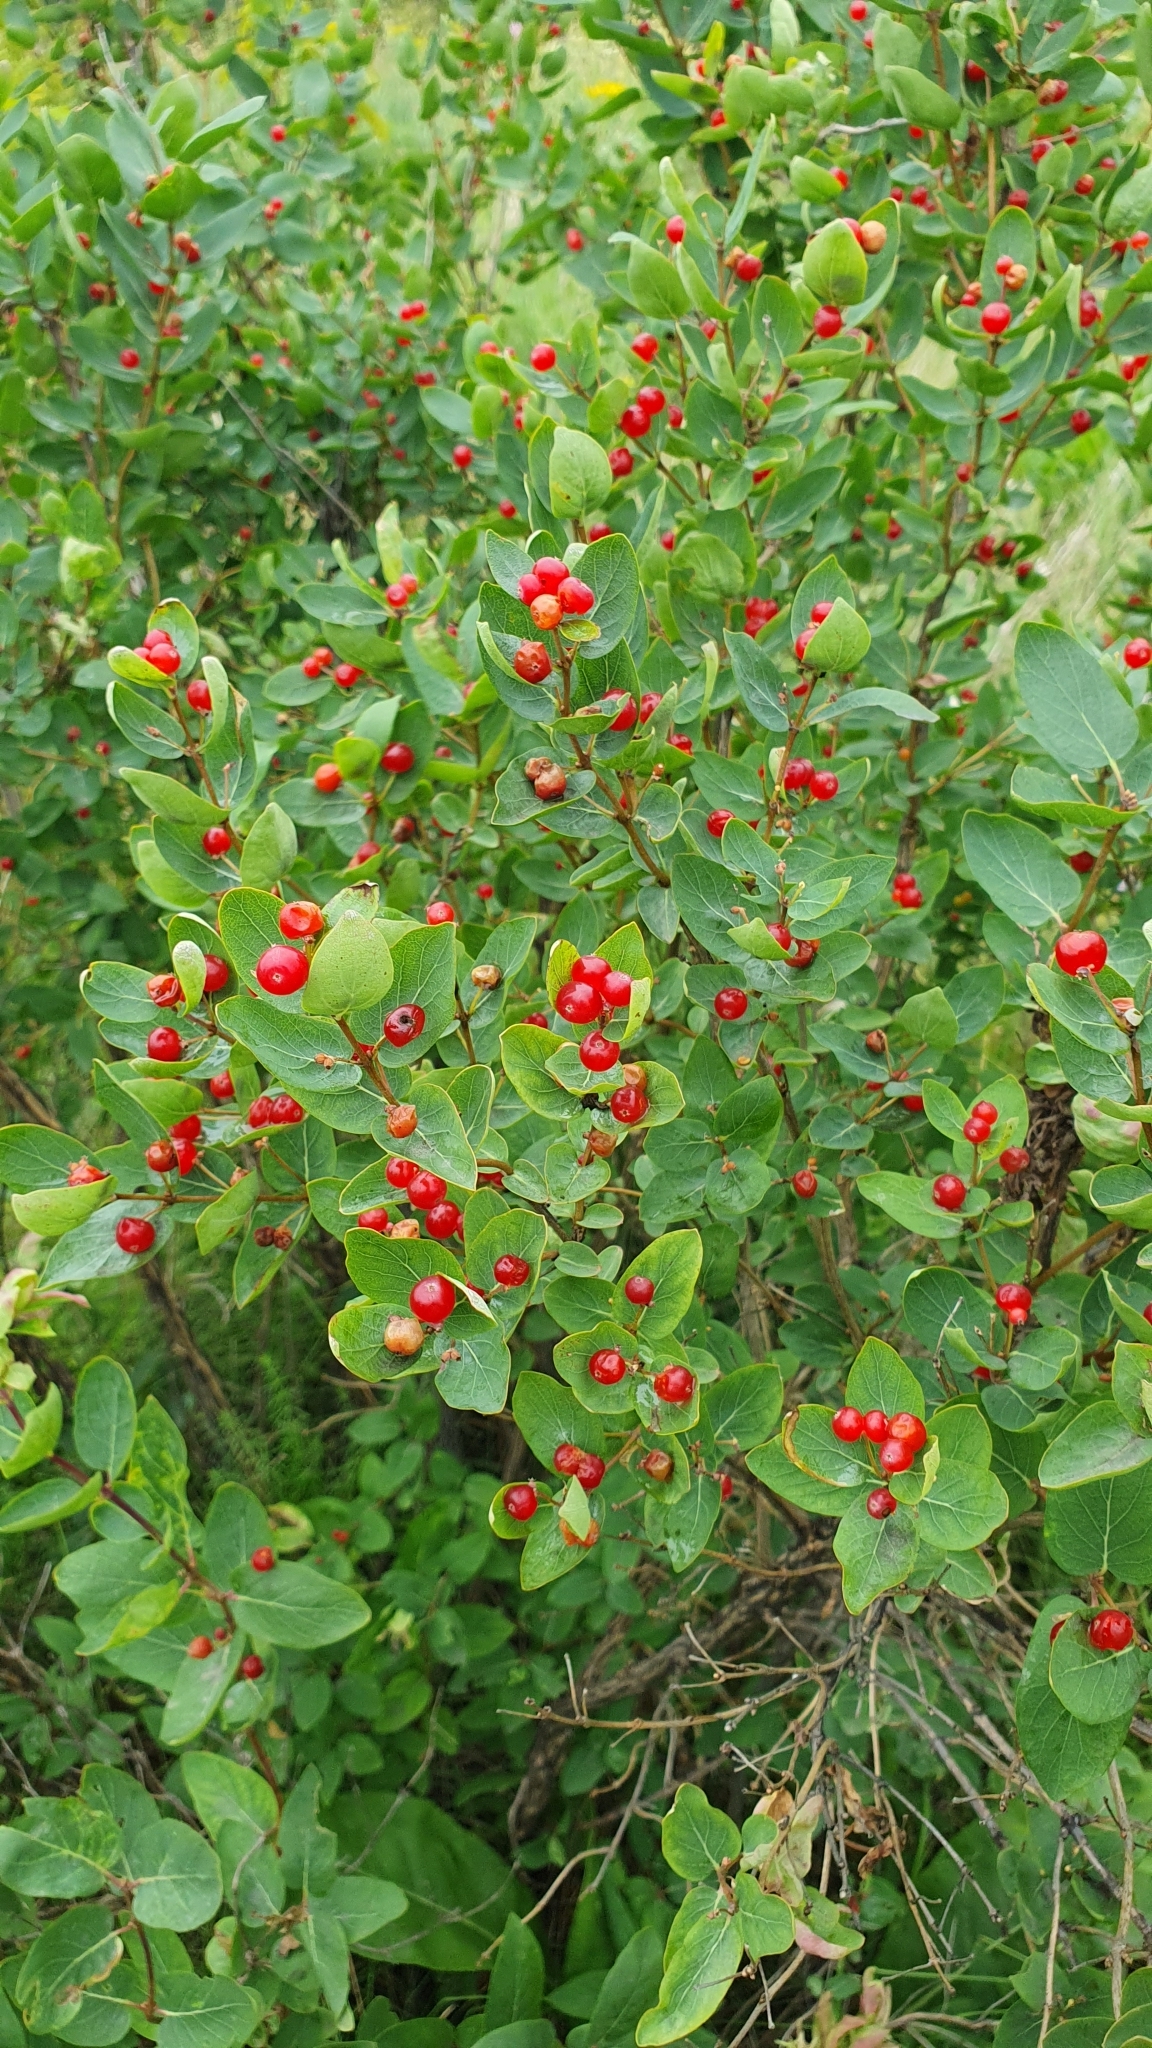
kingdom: Plantae
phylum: Tracheophyta
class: Magnoliopsida
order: Dipsacales
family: Caprifoliaceae
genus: Lonicera
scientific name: Lonicera tatarica
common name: Tatarian honeysuckle
